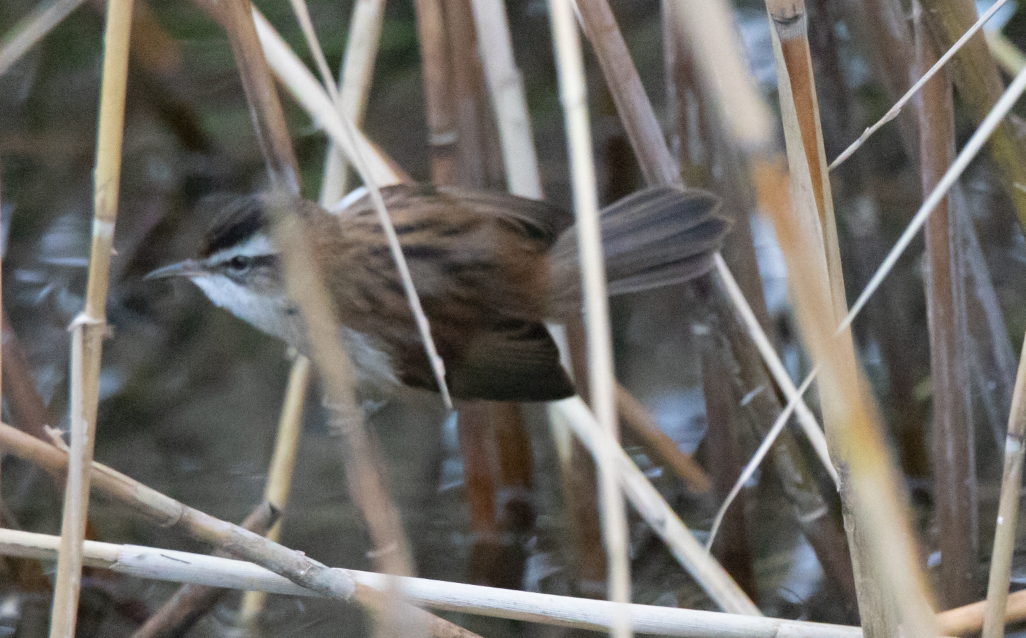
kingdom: Animalia
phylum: Chordata
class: Aves
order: Passeriformes
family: Acrocephalidae
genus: Acrocephalus
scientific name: Acrocephalus melanopogon
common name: Moustached warbler
